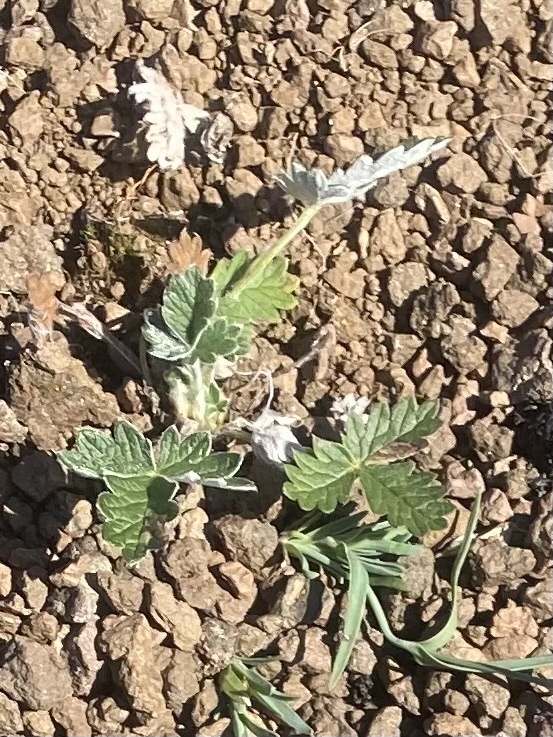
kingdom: Plantae
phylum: Tracheophyta
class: Magnoliopsida
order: Rosales
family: Rosaceae
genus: Potentilla
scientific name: Potentilla prostrata
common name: Prostrate cinquefoil
